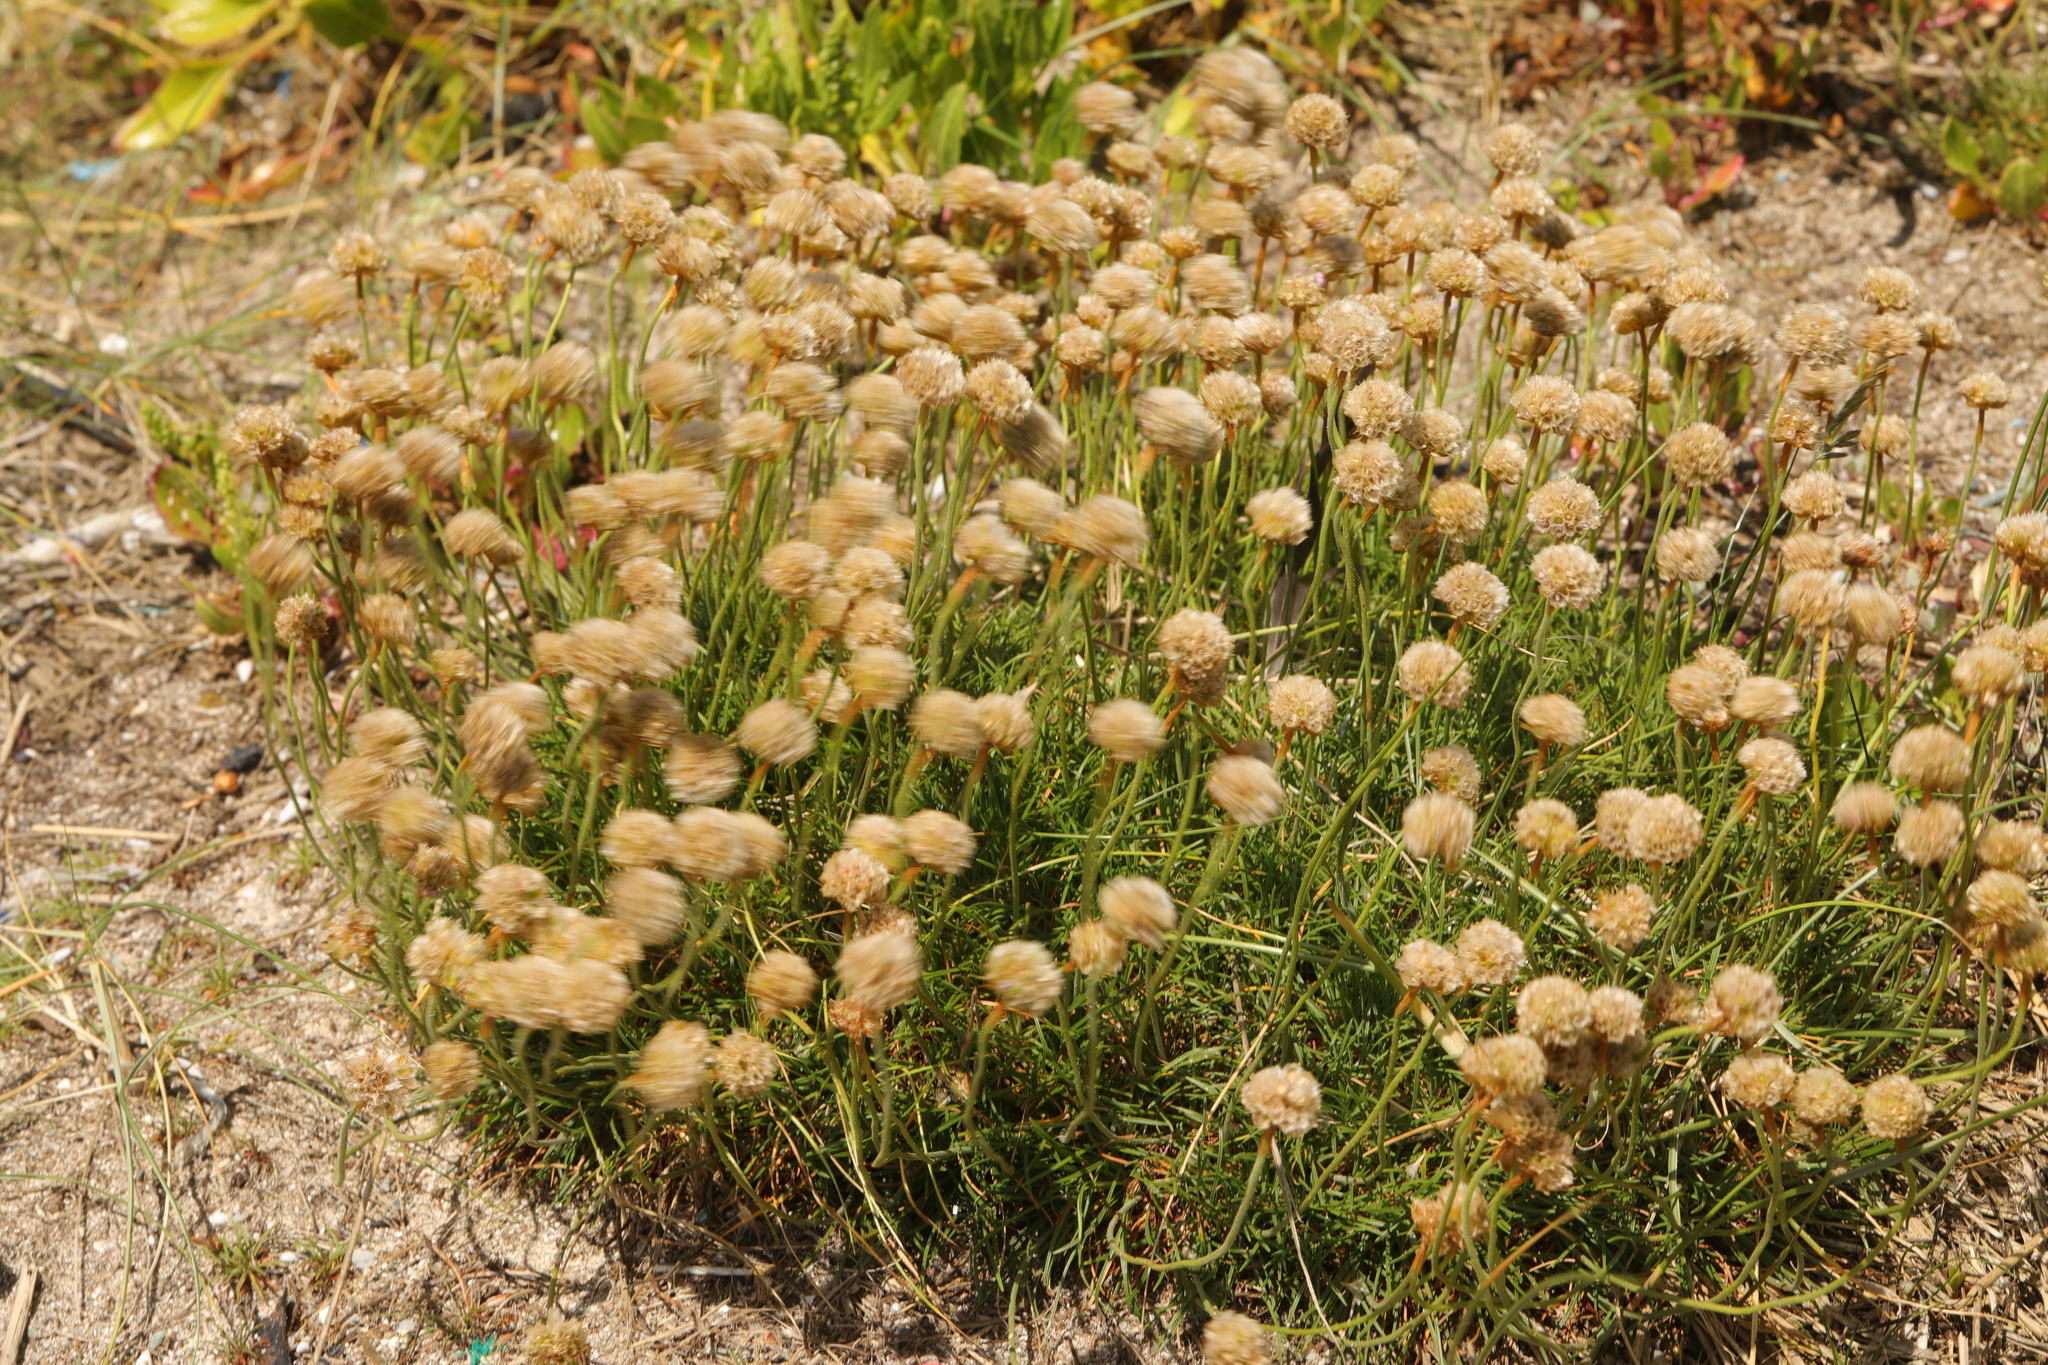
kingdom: Plantae
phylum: Tracheophyta
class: Magnoliopsida
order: Caryophyllales
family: Plumbaginaceae
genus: Armeria
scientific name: Armeria maritima
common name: Thrift
